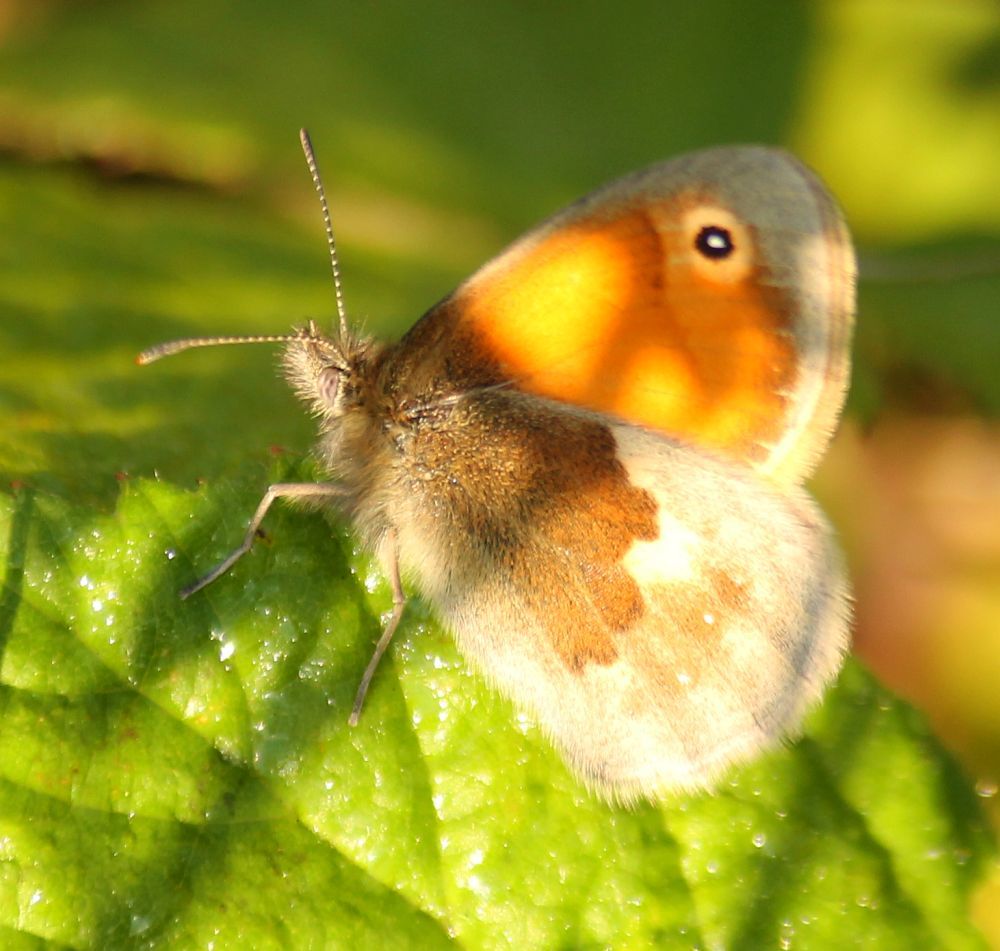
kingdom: Animalia
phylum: Arthropoda
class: Insecta
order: Lepidoptera
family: Nymphalidae
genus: Coenonympha
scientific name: Coenonympha pamphilus
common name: Small heath
